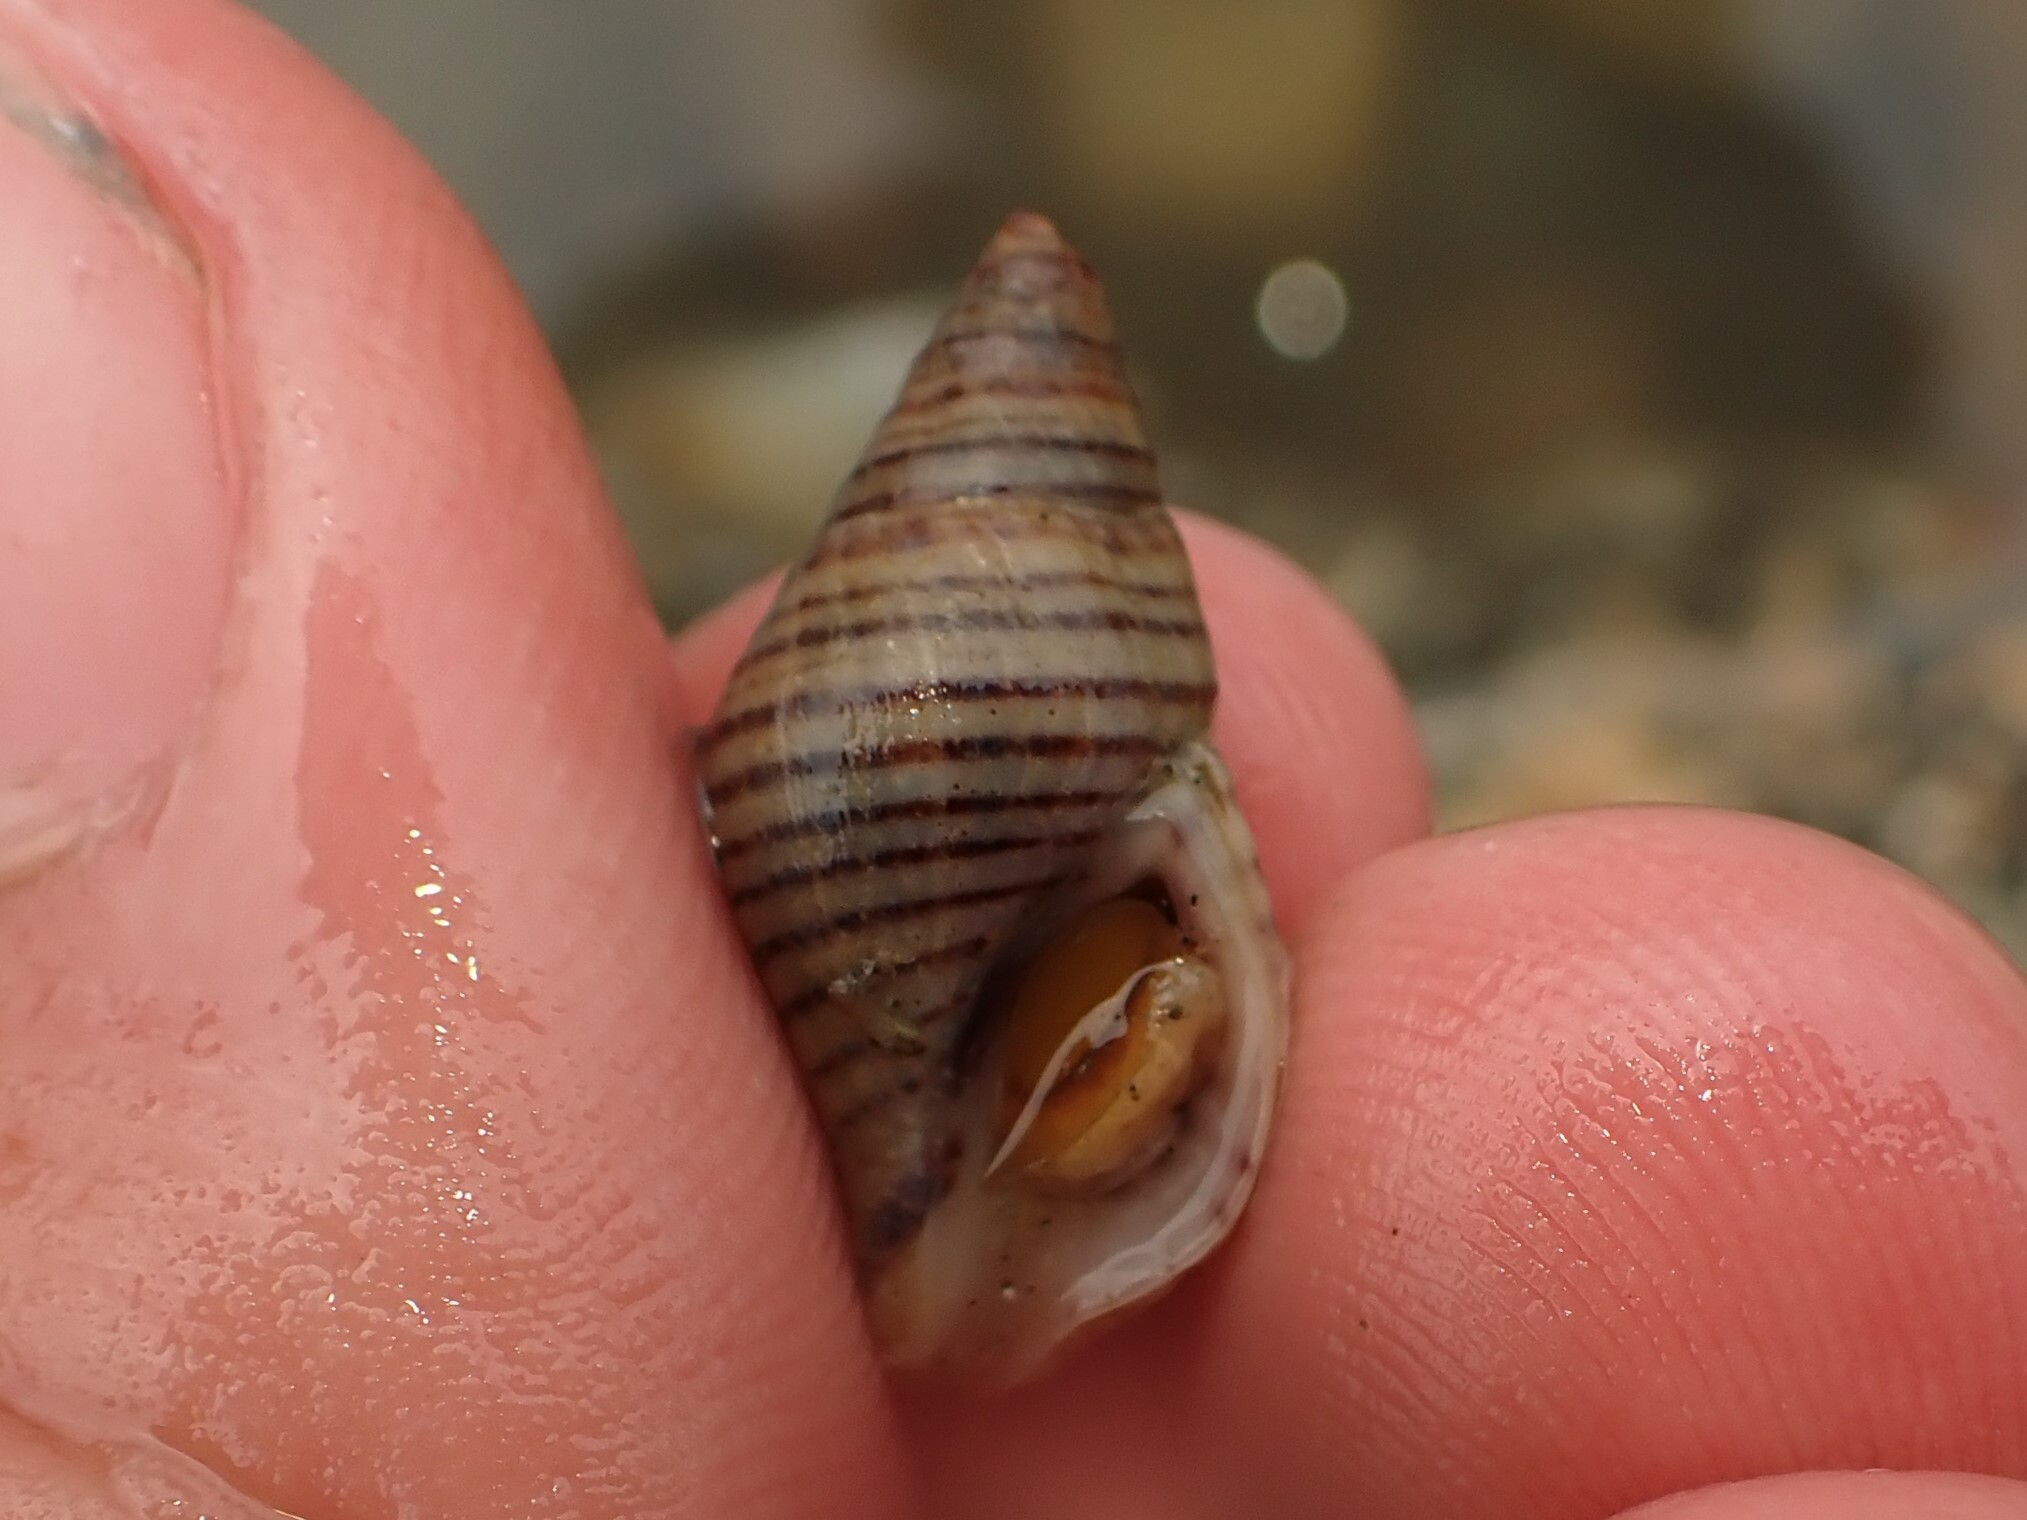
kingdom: Animalia
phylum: Mollusca
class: Gastropoda
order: Neogastropoda
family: Tudiclidae
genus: Buccinulum
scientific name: Buccinulum littorinoides
